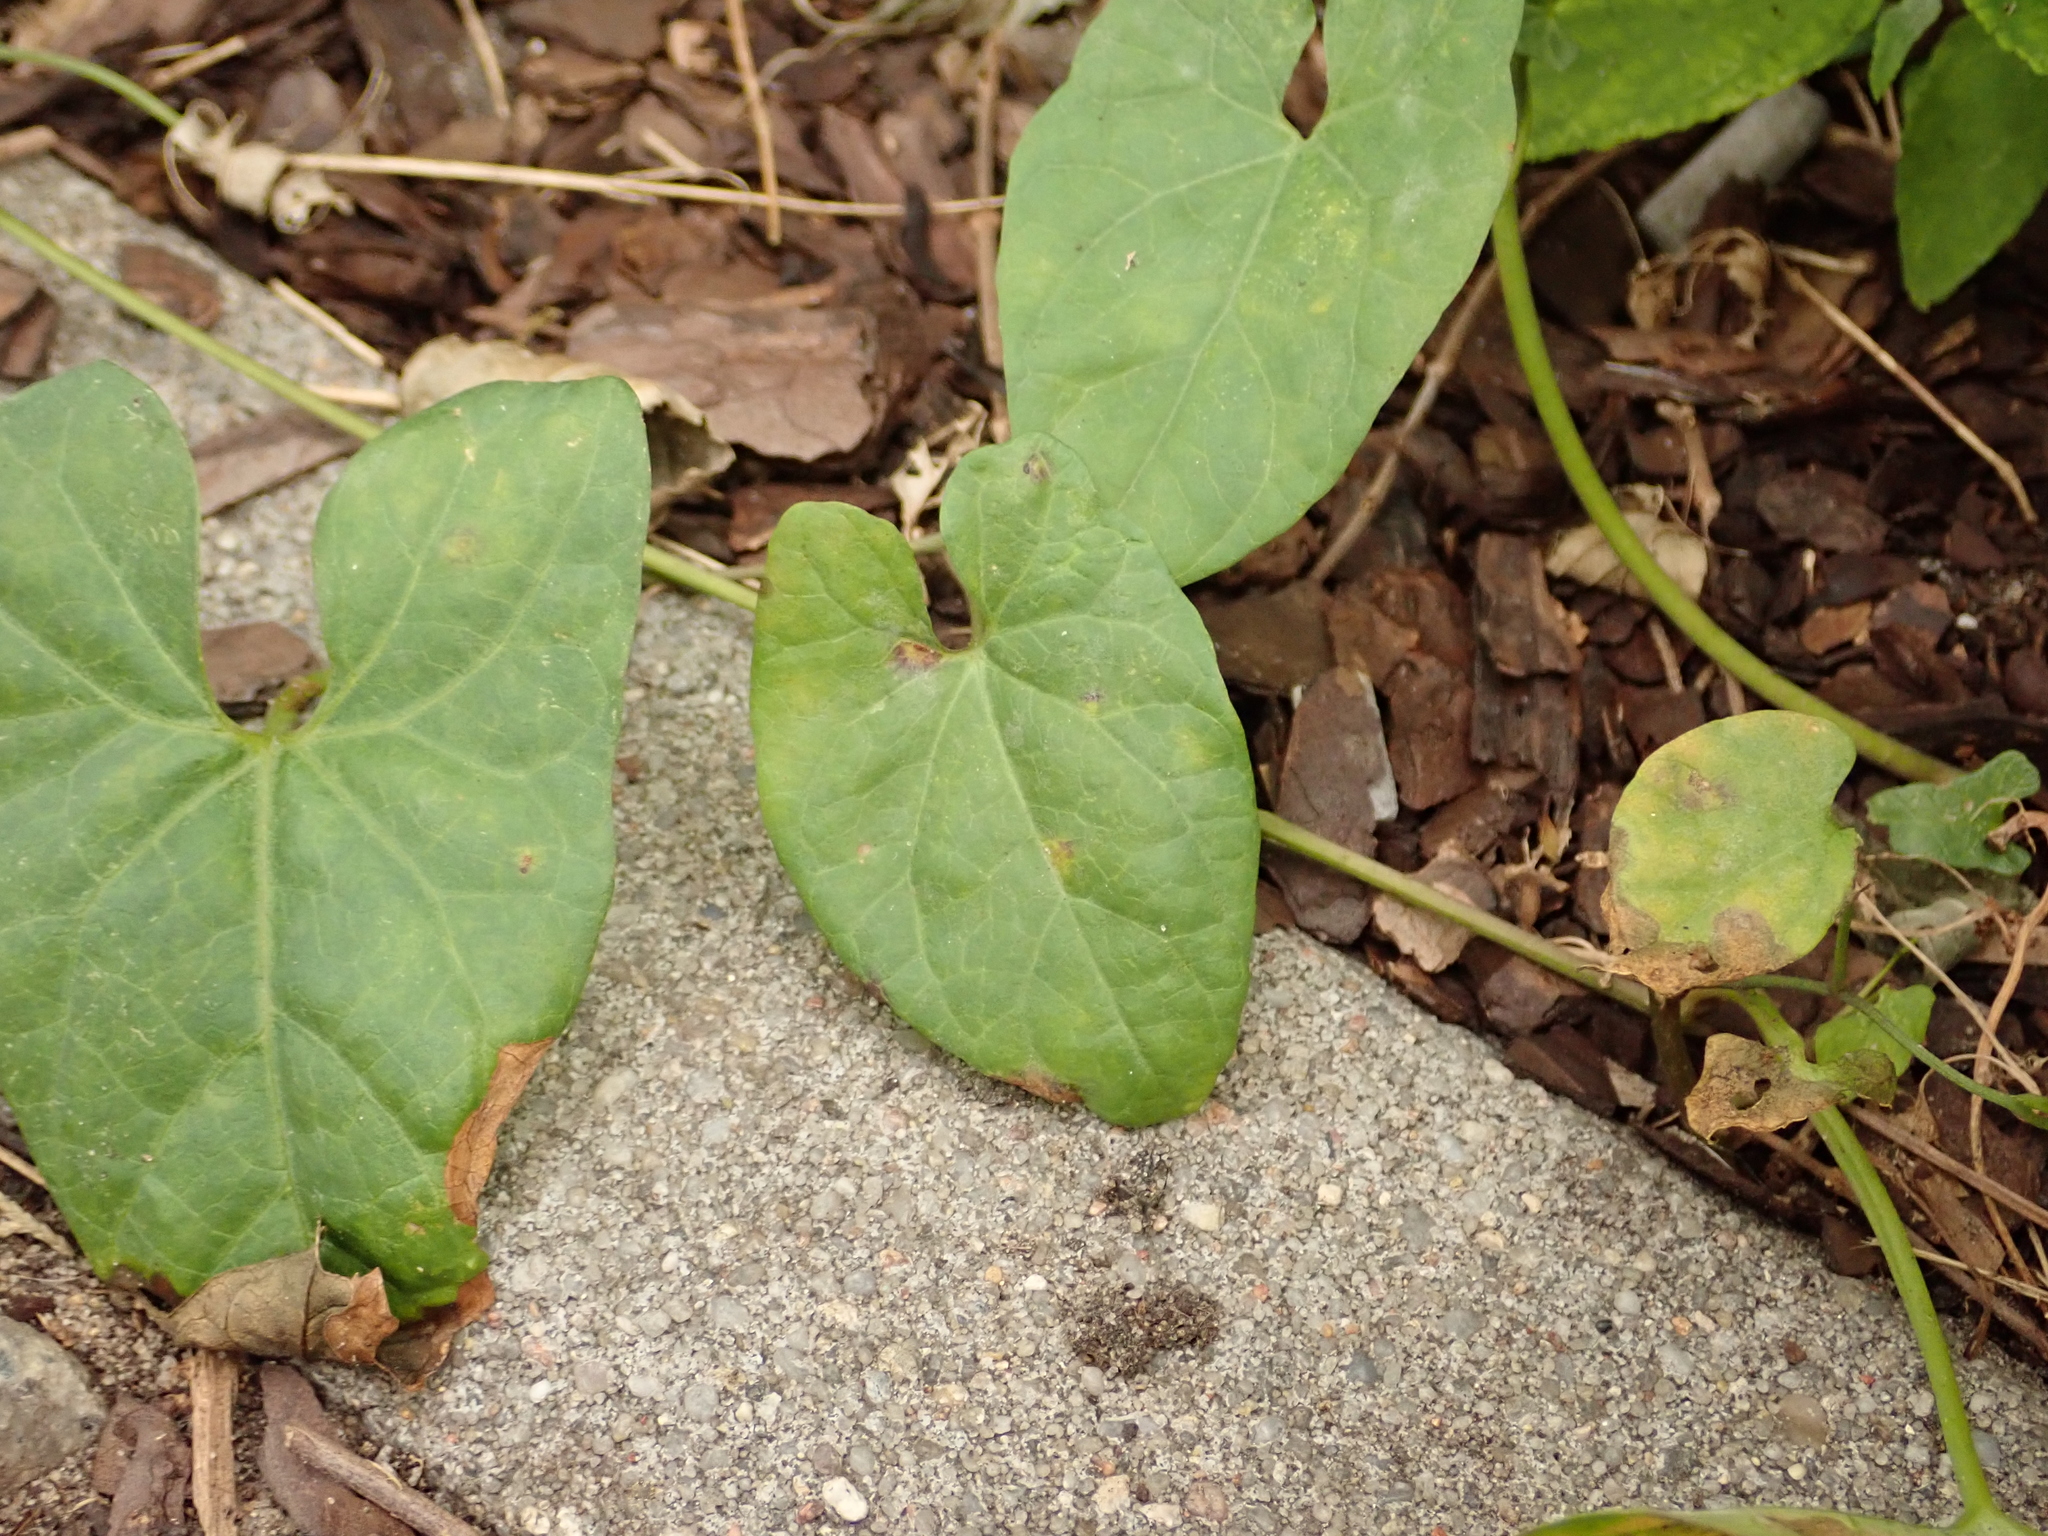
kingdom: Plantae
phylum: Tracheophyta
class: Magnoliopsida
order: Solanales
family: Convolvulaceae
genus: Calystegia
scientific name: Calystegia sepium
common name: Hedge bindweed
